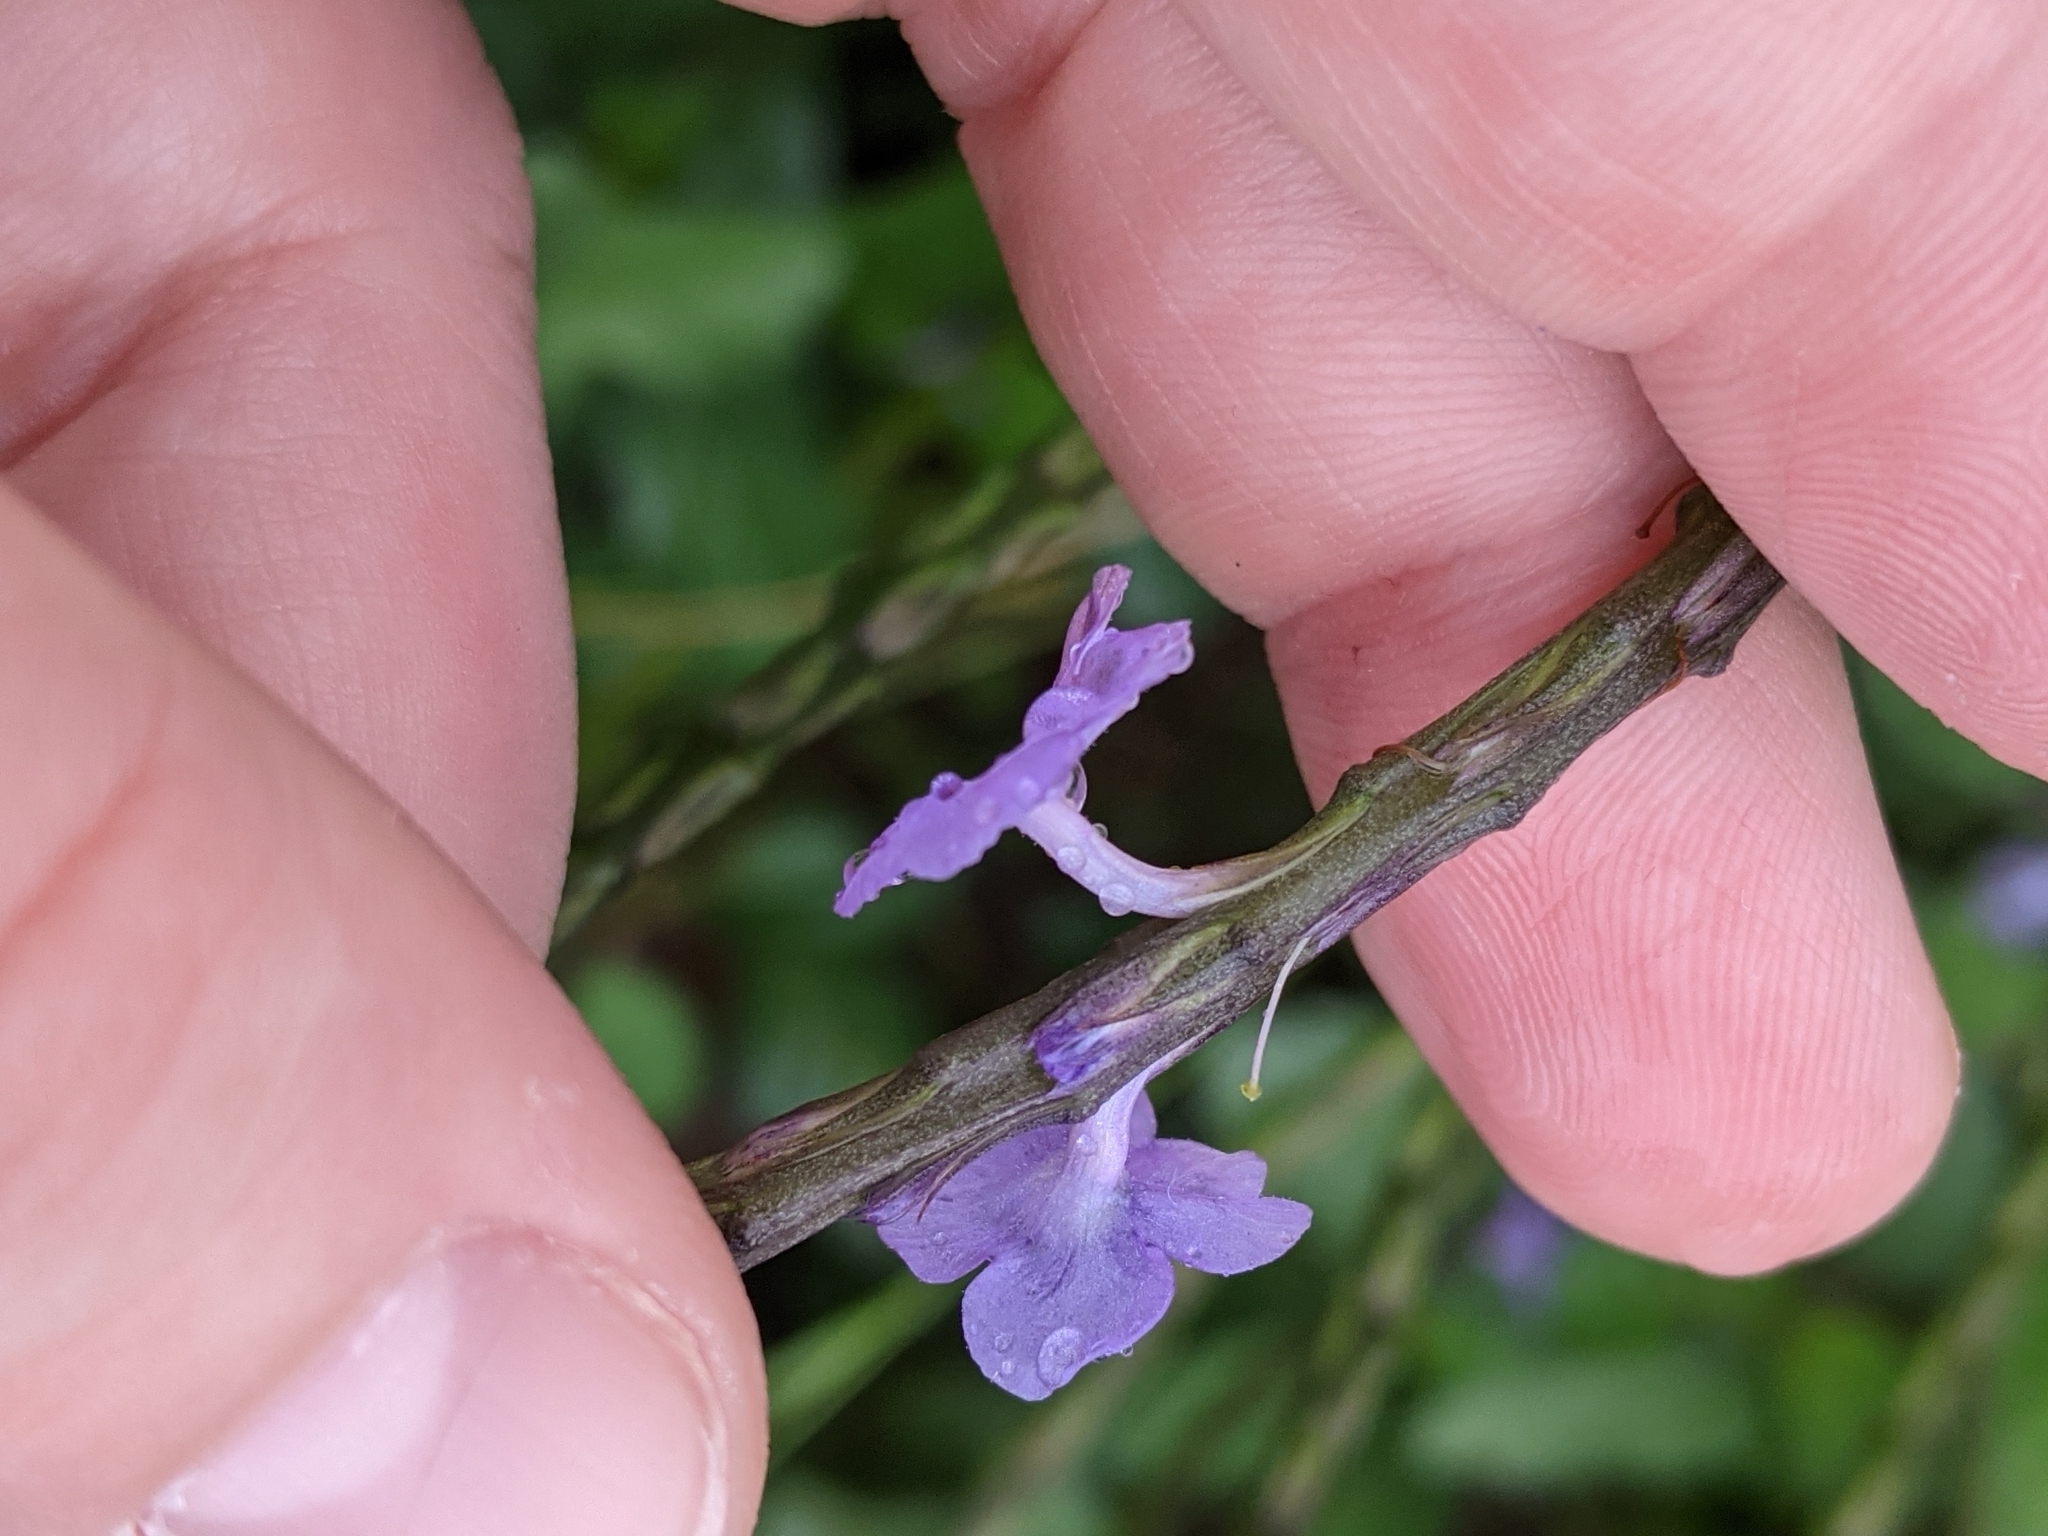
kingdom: Plantae
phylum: Tracheophyta
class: Magnoliopsida
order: Lamiales
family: Verbenaceae
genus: Stachytarpheta
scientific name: Stachytarpheta jamaicensis
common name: Light-blue snakeweed
